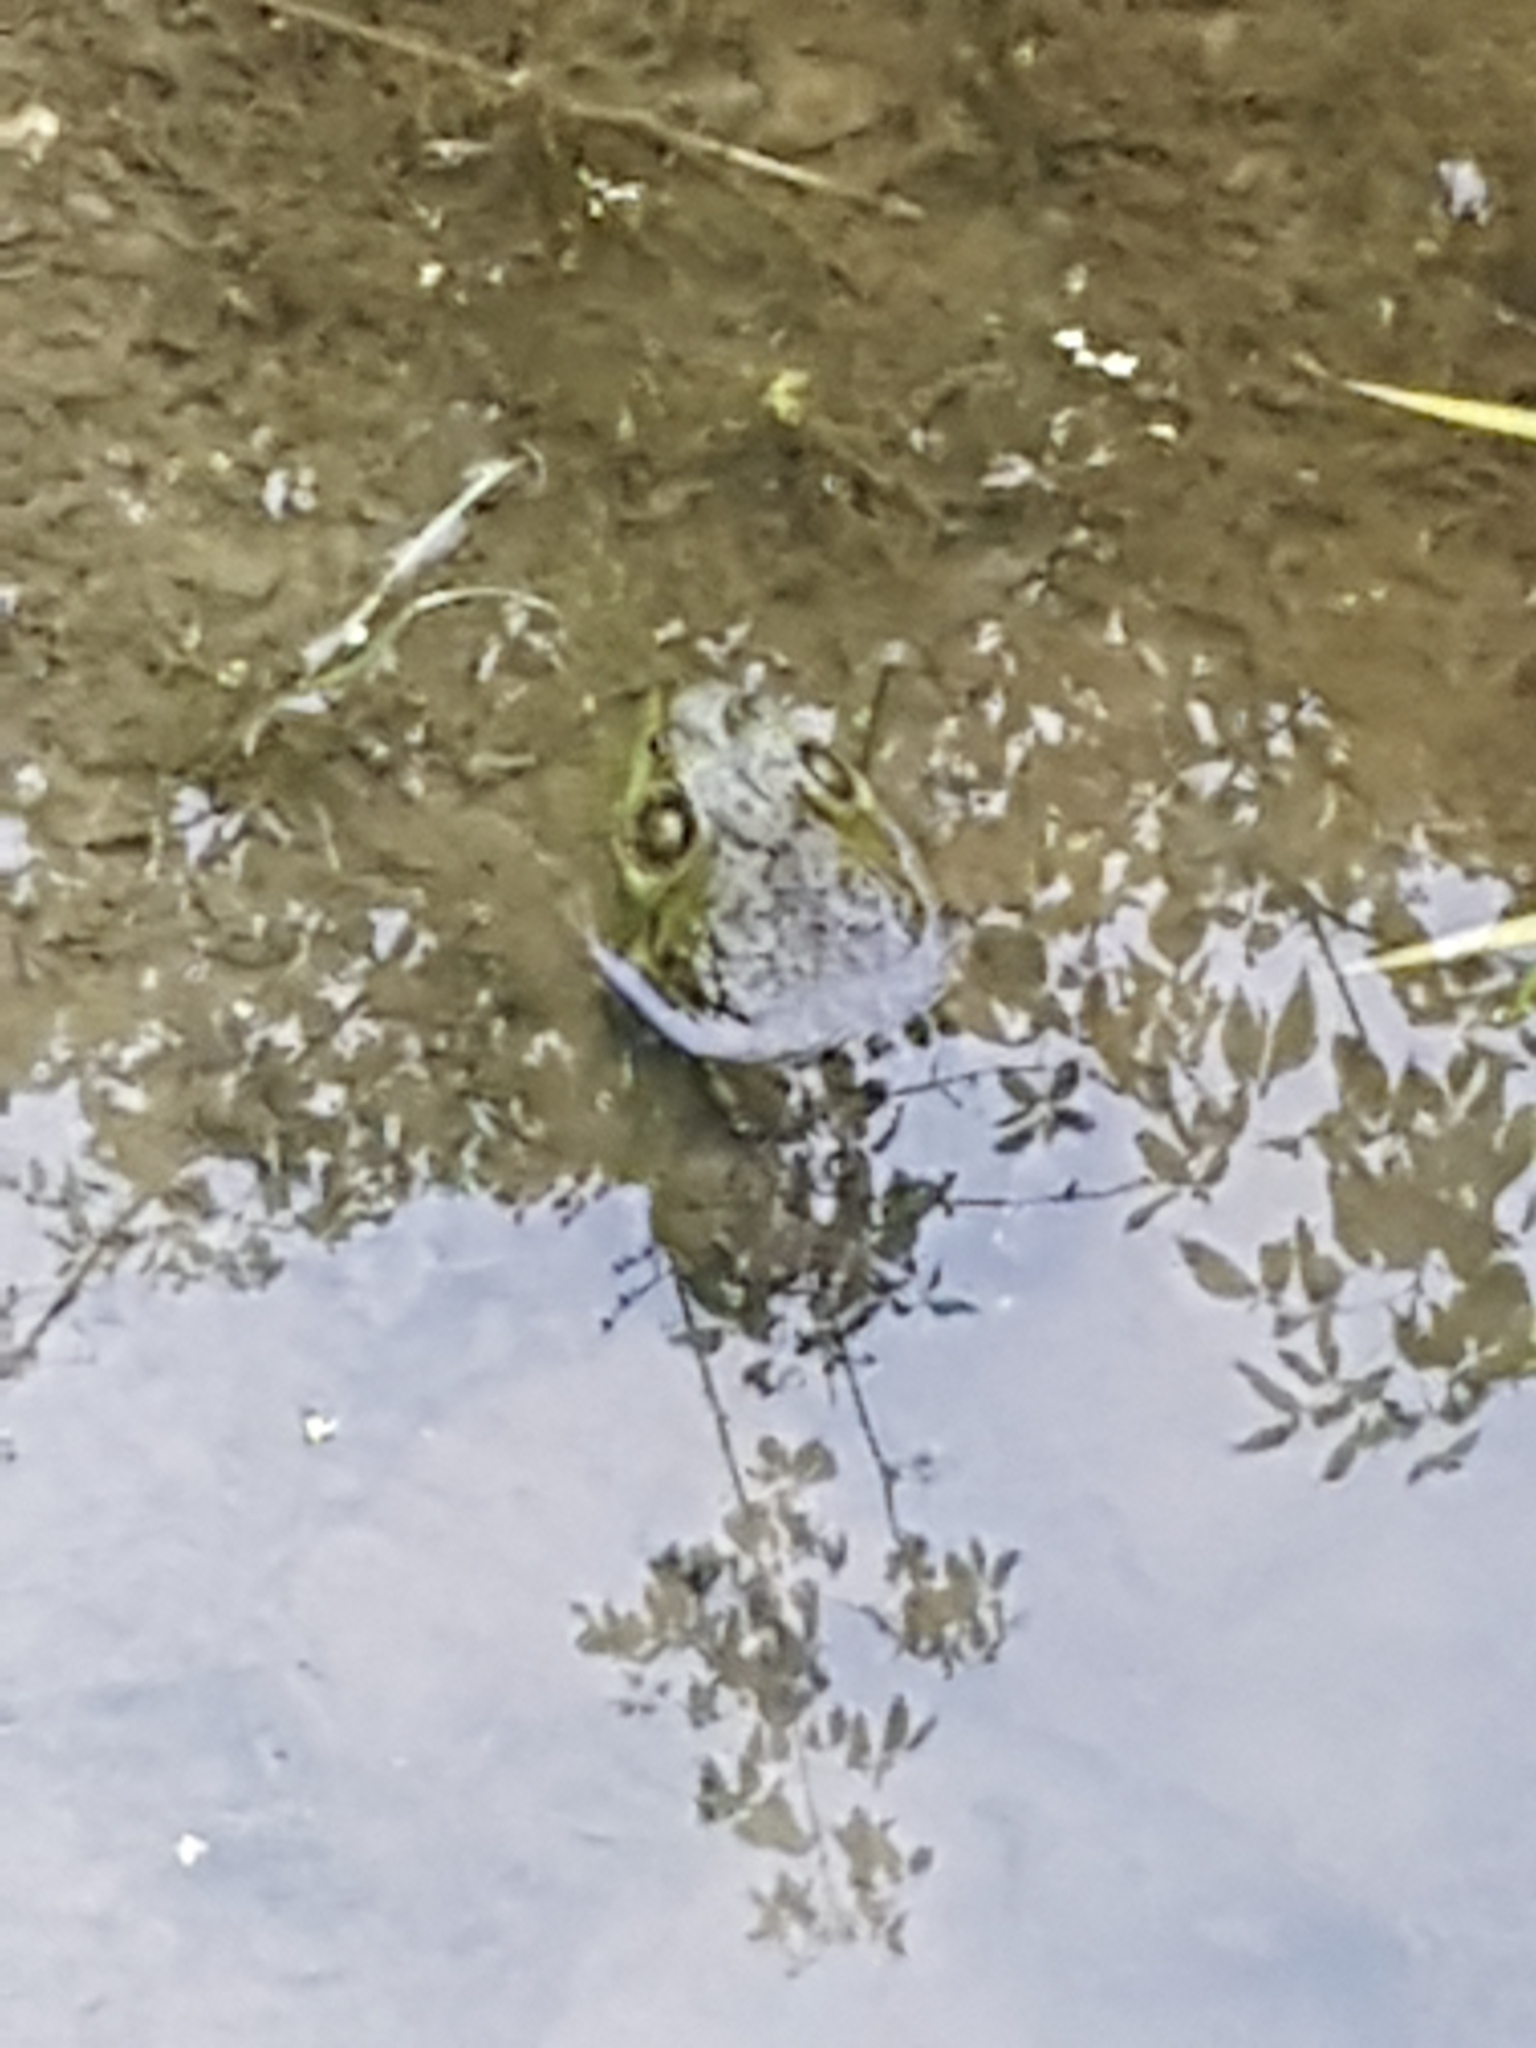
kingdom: Animalia
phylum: Chordata
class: Amphibia
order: Anura
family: Ranidae
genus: Lithobates
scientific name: Lithobates catesbeianus
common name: American bullfrog
